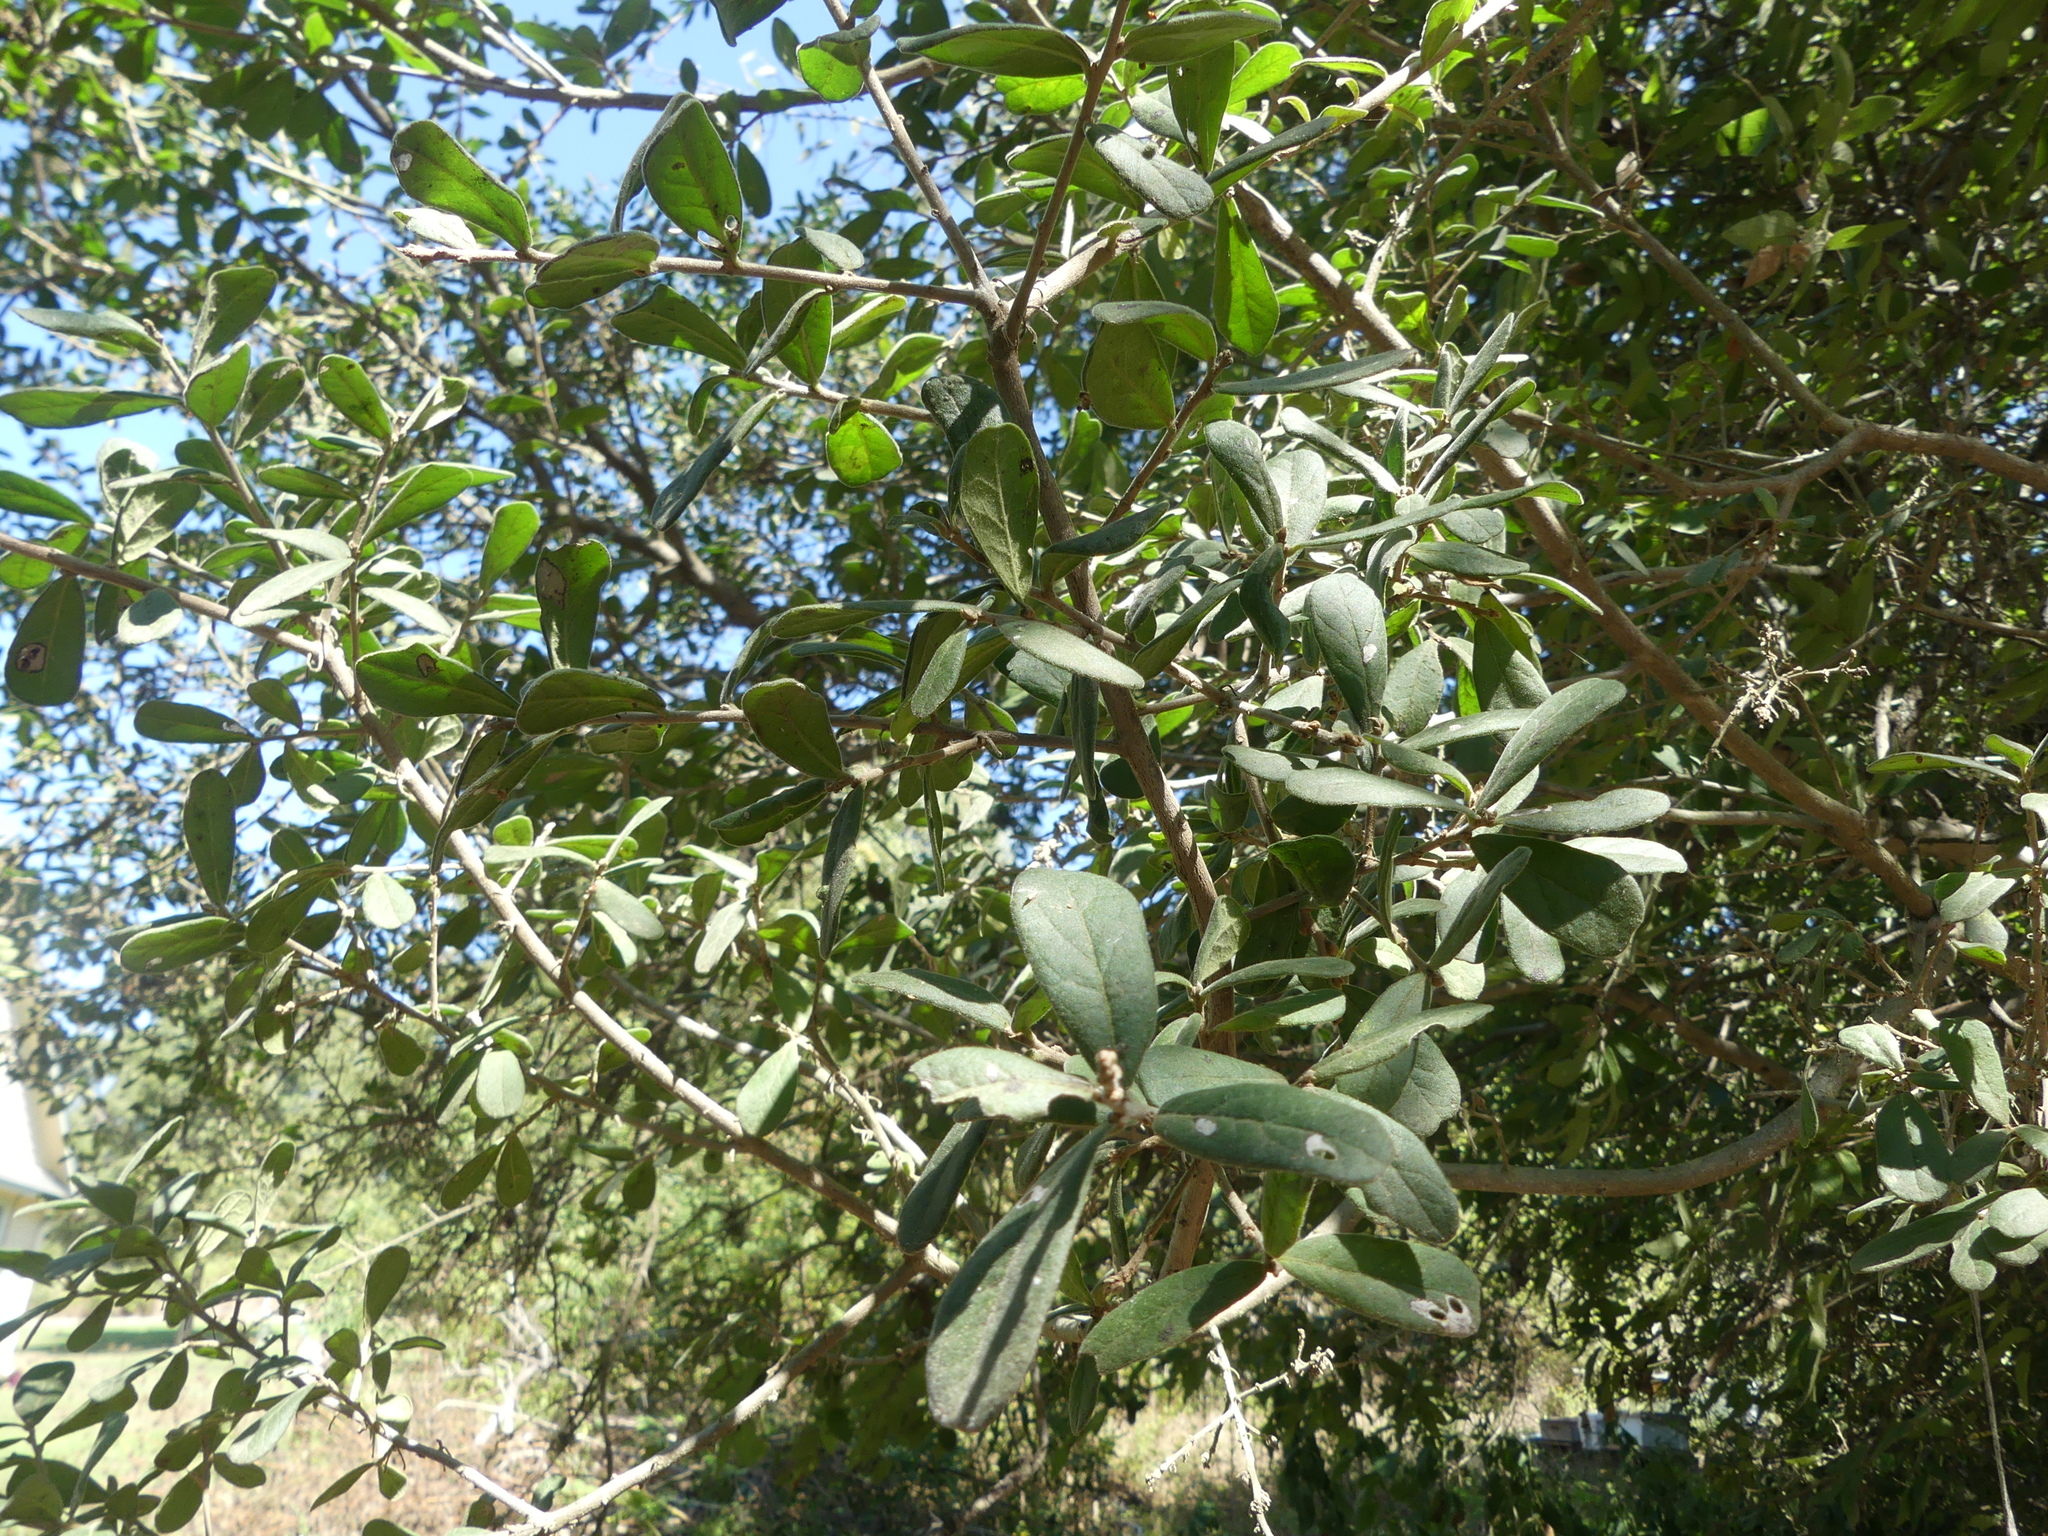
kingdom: Plantae
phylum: Tracheophyta
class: Magnoliopsida
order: Ericales
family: Ebenaceae
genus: Diospyros
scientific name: Diospyros texana
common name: Texas persimmon
